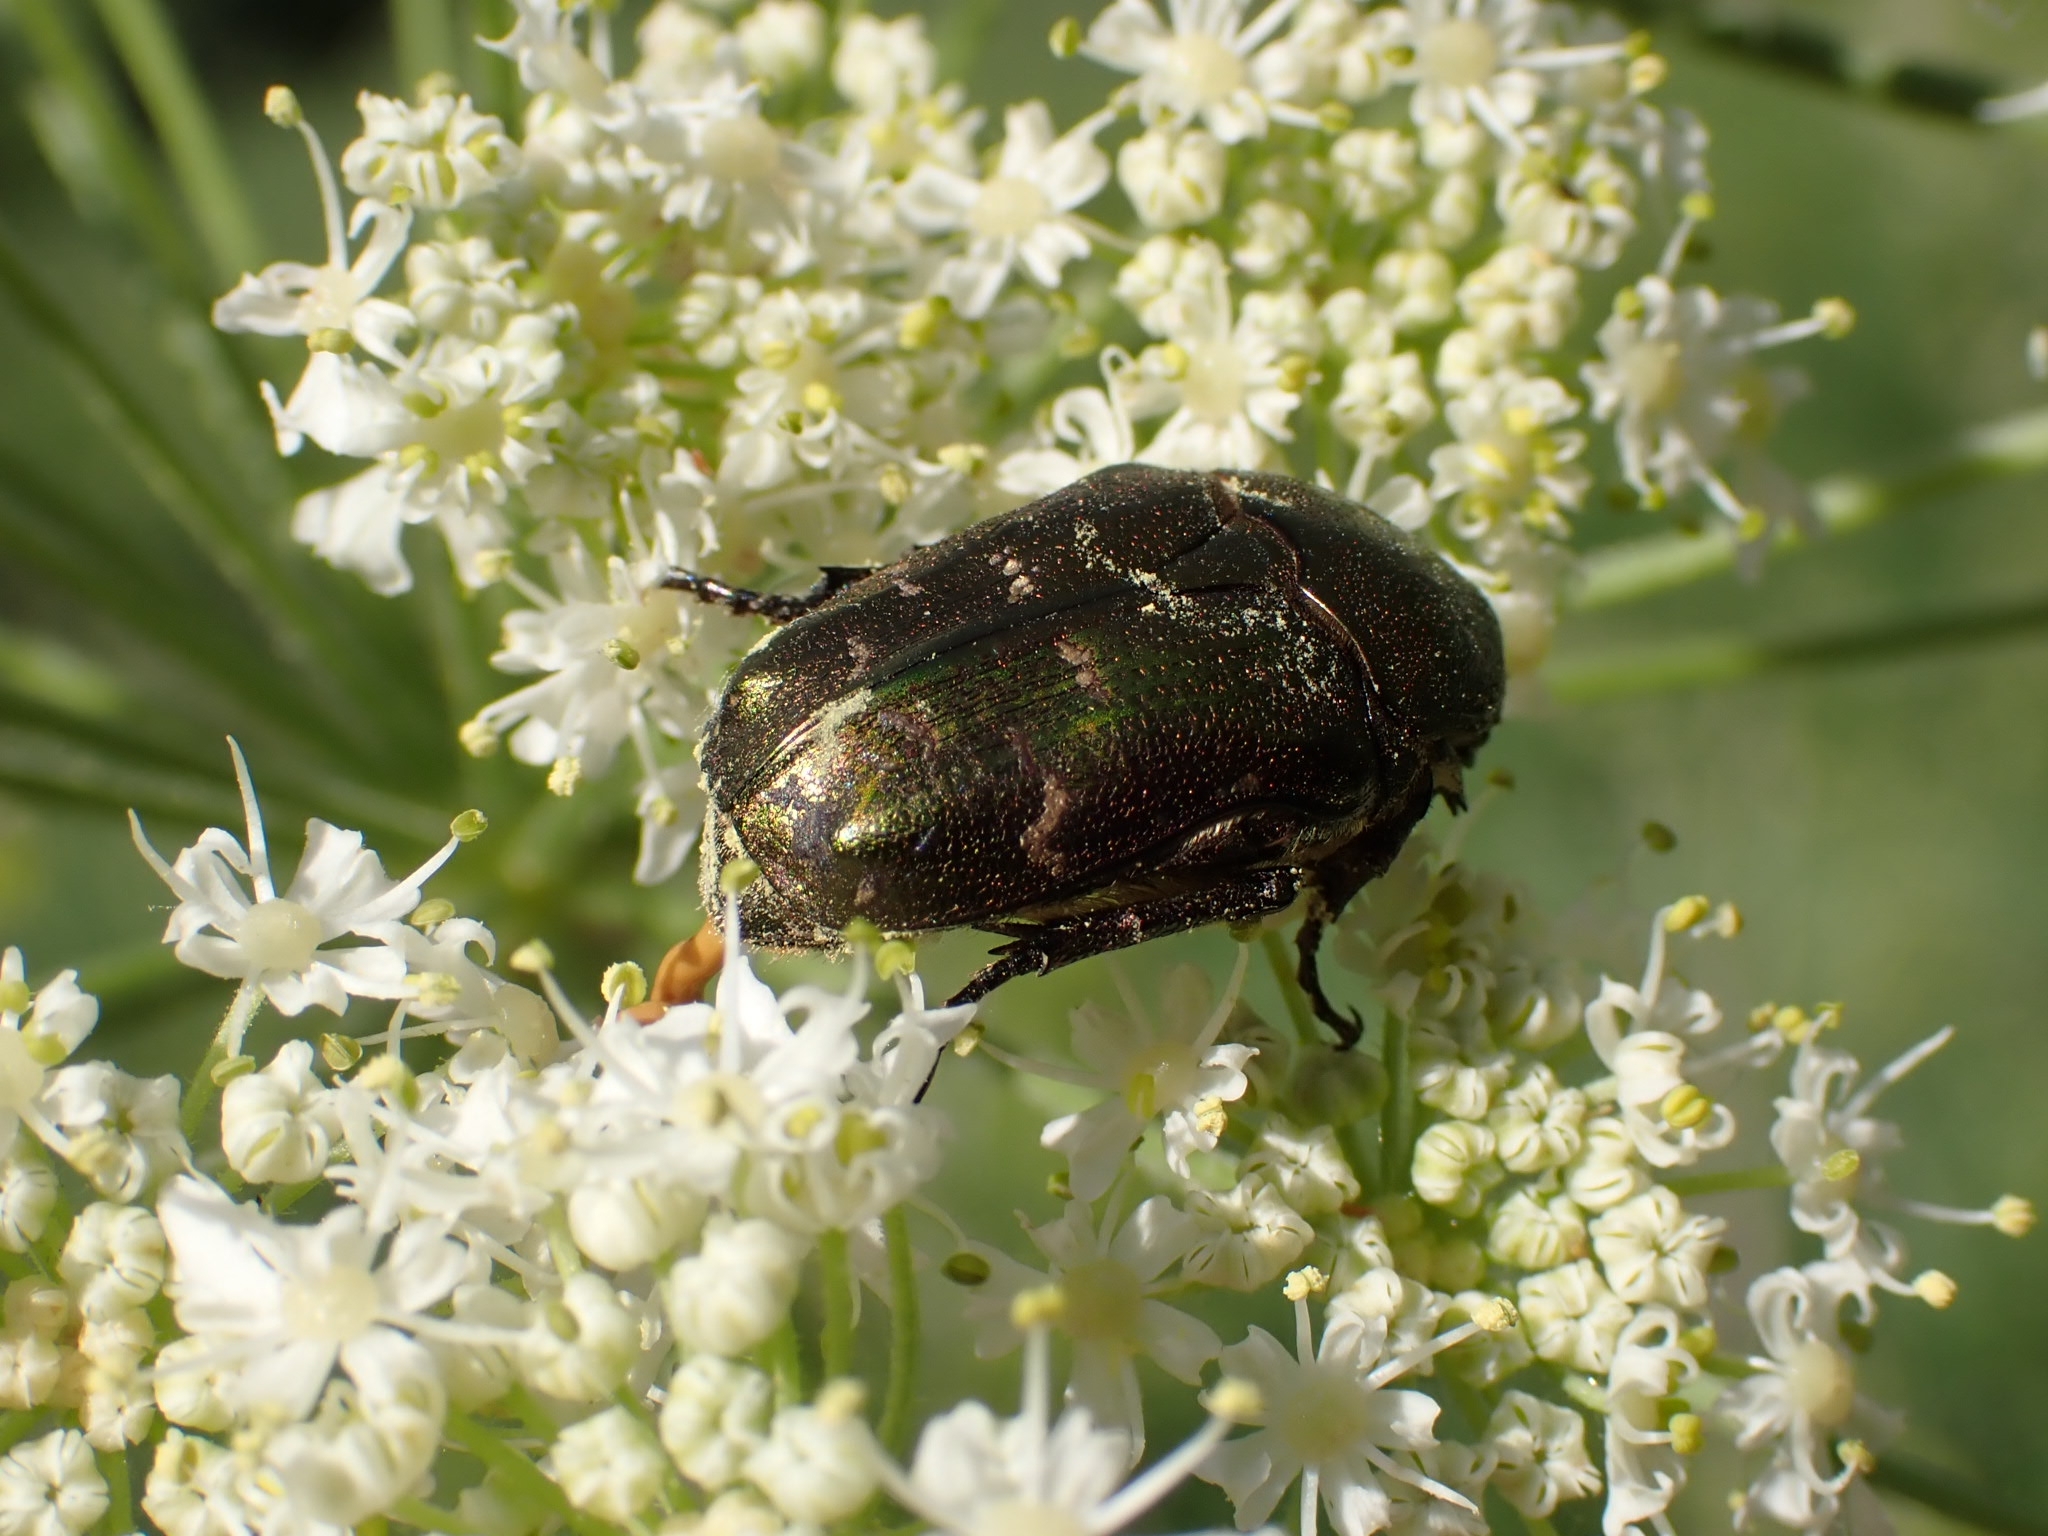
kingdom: Animalia
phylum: Arthropoda
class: Insecta
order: Coleoptera
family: Scarabaeidae
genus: Protaetia
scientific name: Protaetia cuprea
